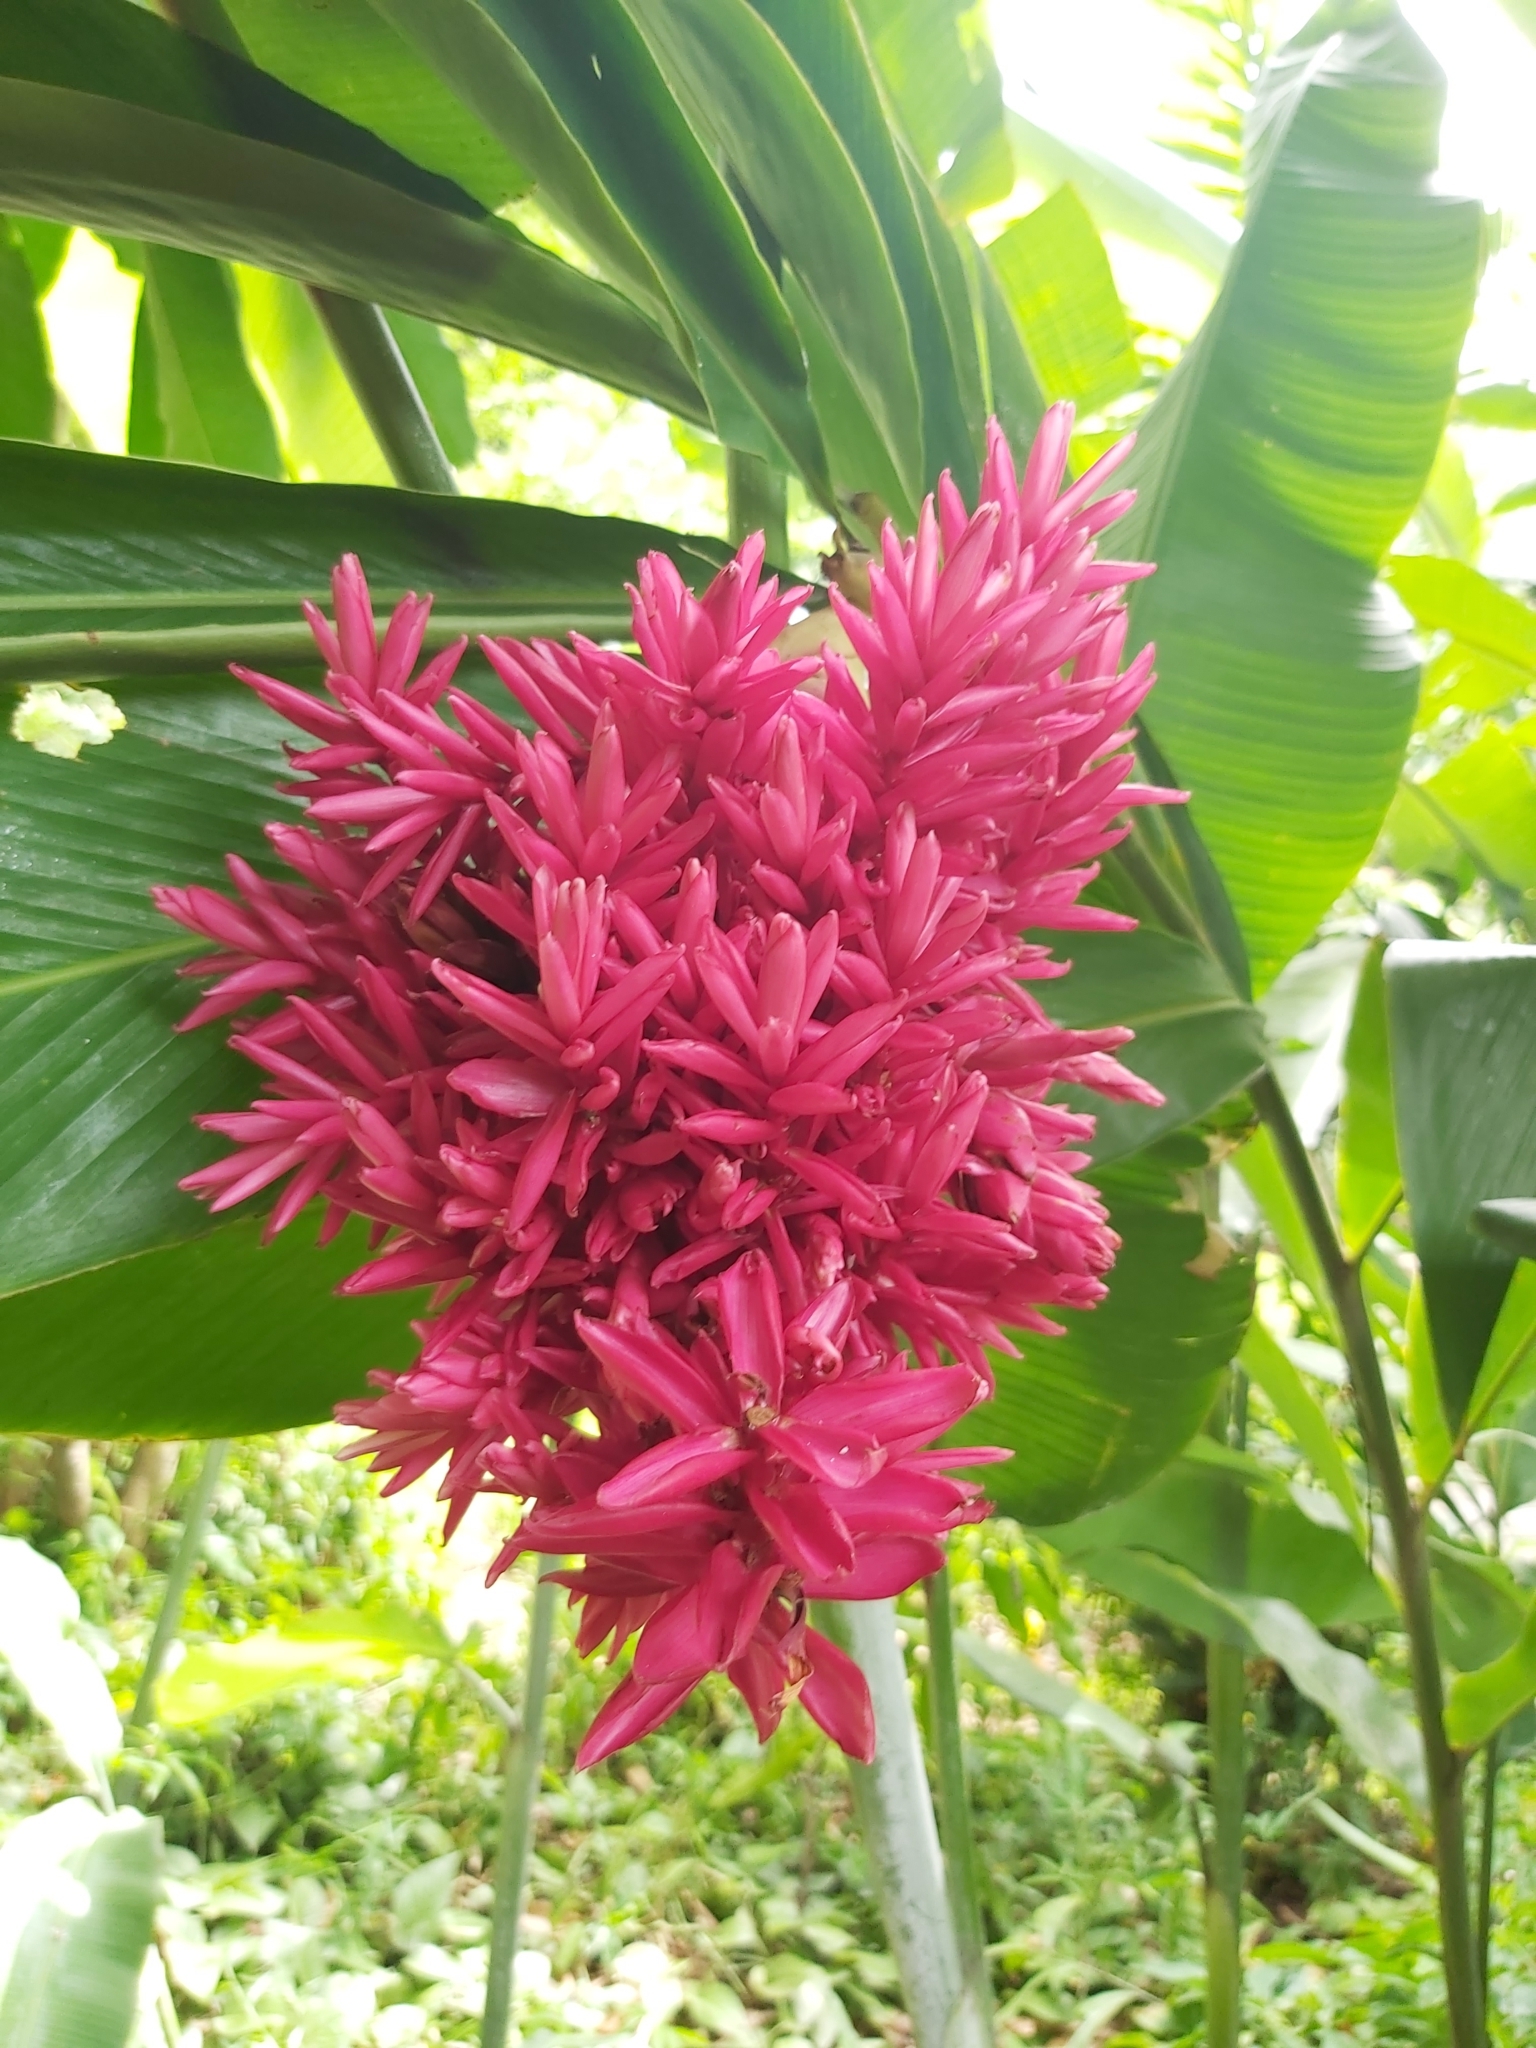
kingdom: Plantae
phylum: Tracheophyta
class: Liliopsida
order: Zingiberales
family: Zingiberaceae
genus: Alpinia
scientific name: Alpinia purpurata
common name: Red ginger
